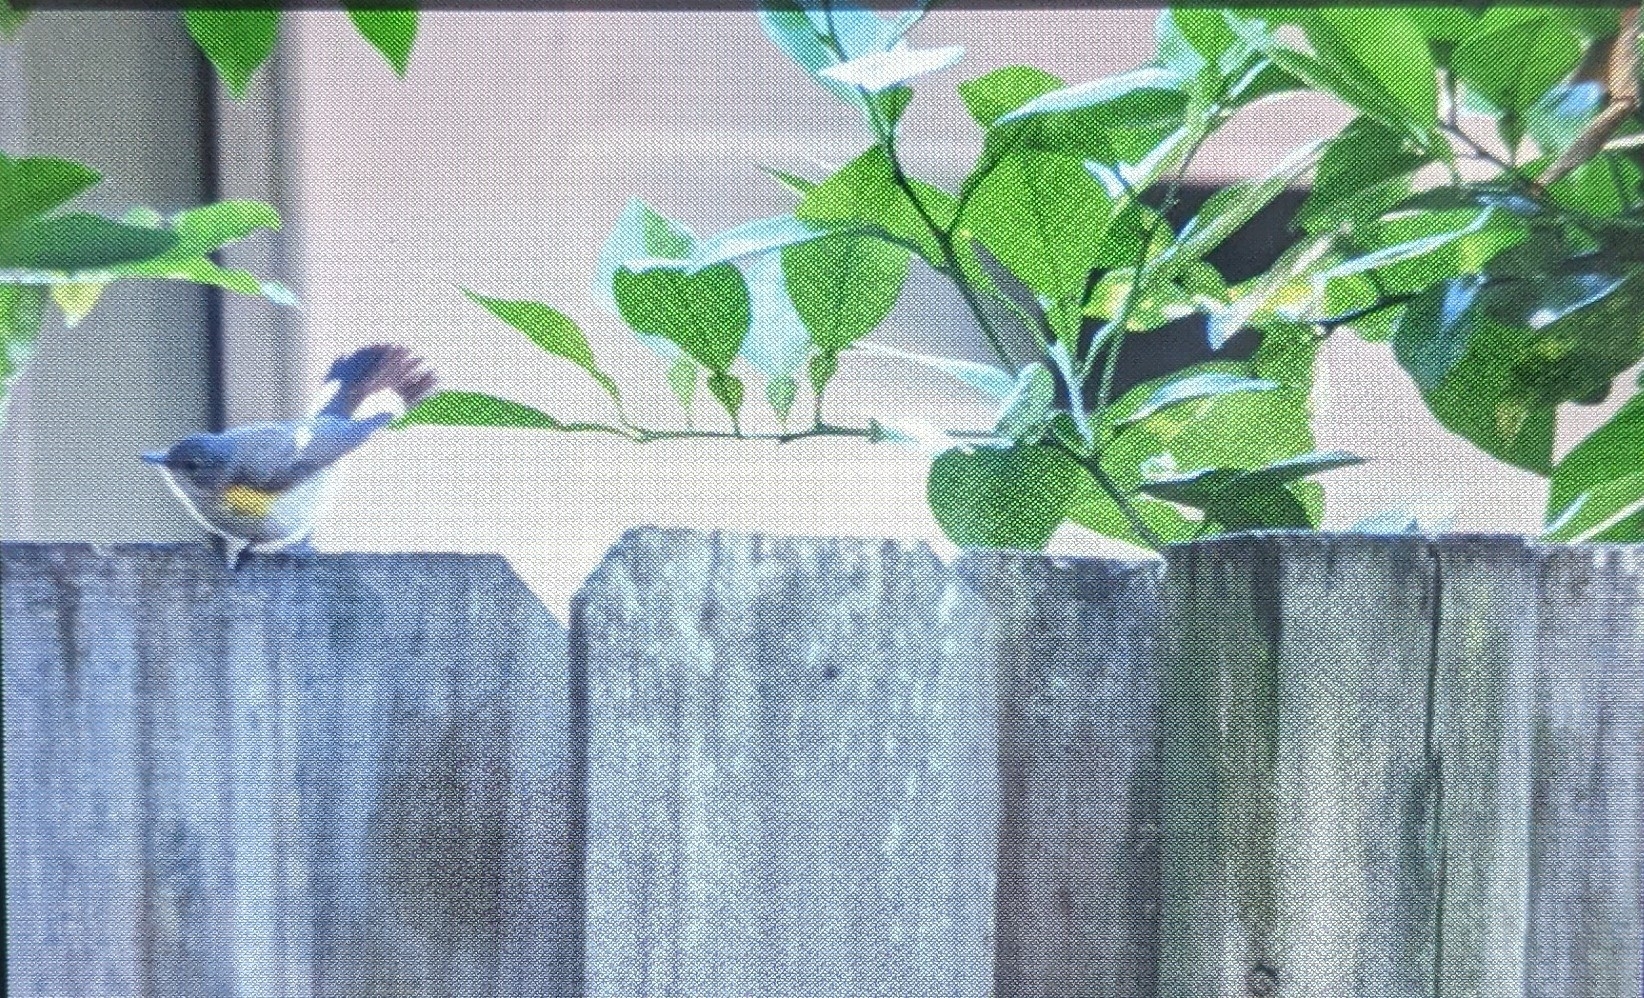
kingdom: Animalia
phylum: Chordata
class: Aves
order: Passeriformes
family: Parulidae
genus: Setophaga
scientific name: Setophaga ruticilla
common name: American redstart
